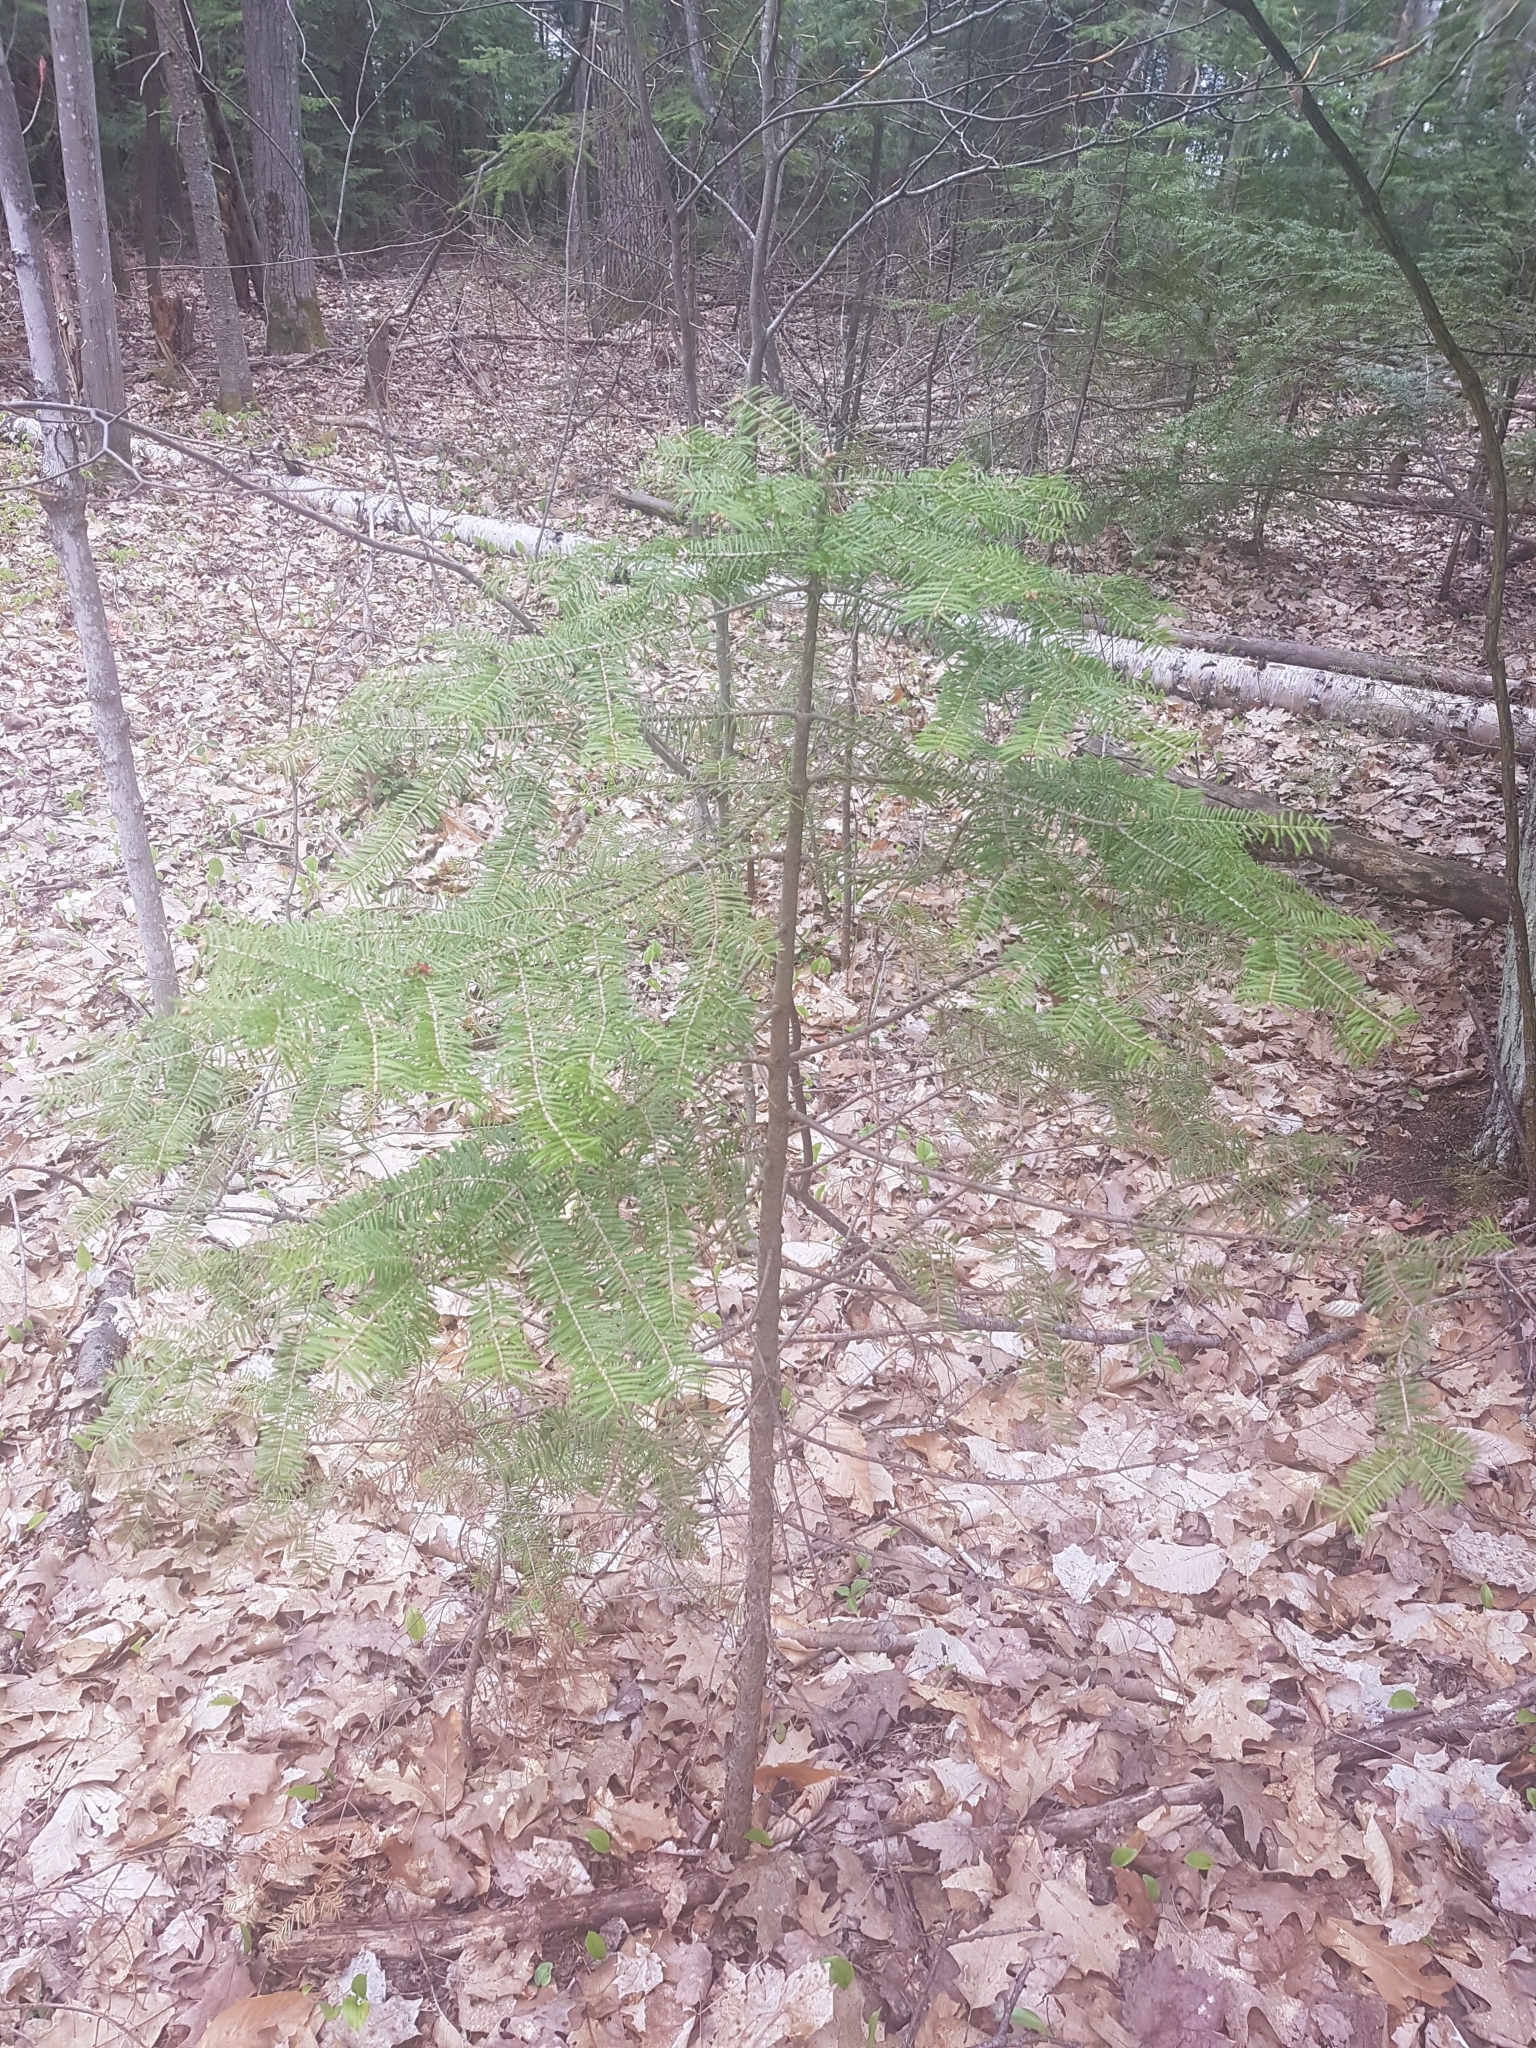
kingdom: Plantae
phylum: Tracheophyta
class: Pinopsida
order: Pinales
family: Pinaceae
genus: Abies
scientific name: Abies balsamea
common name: Balsam fir
